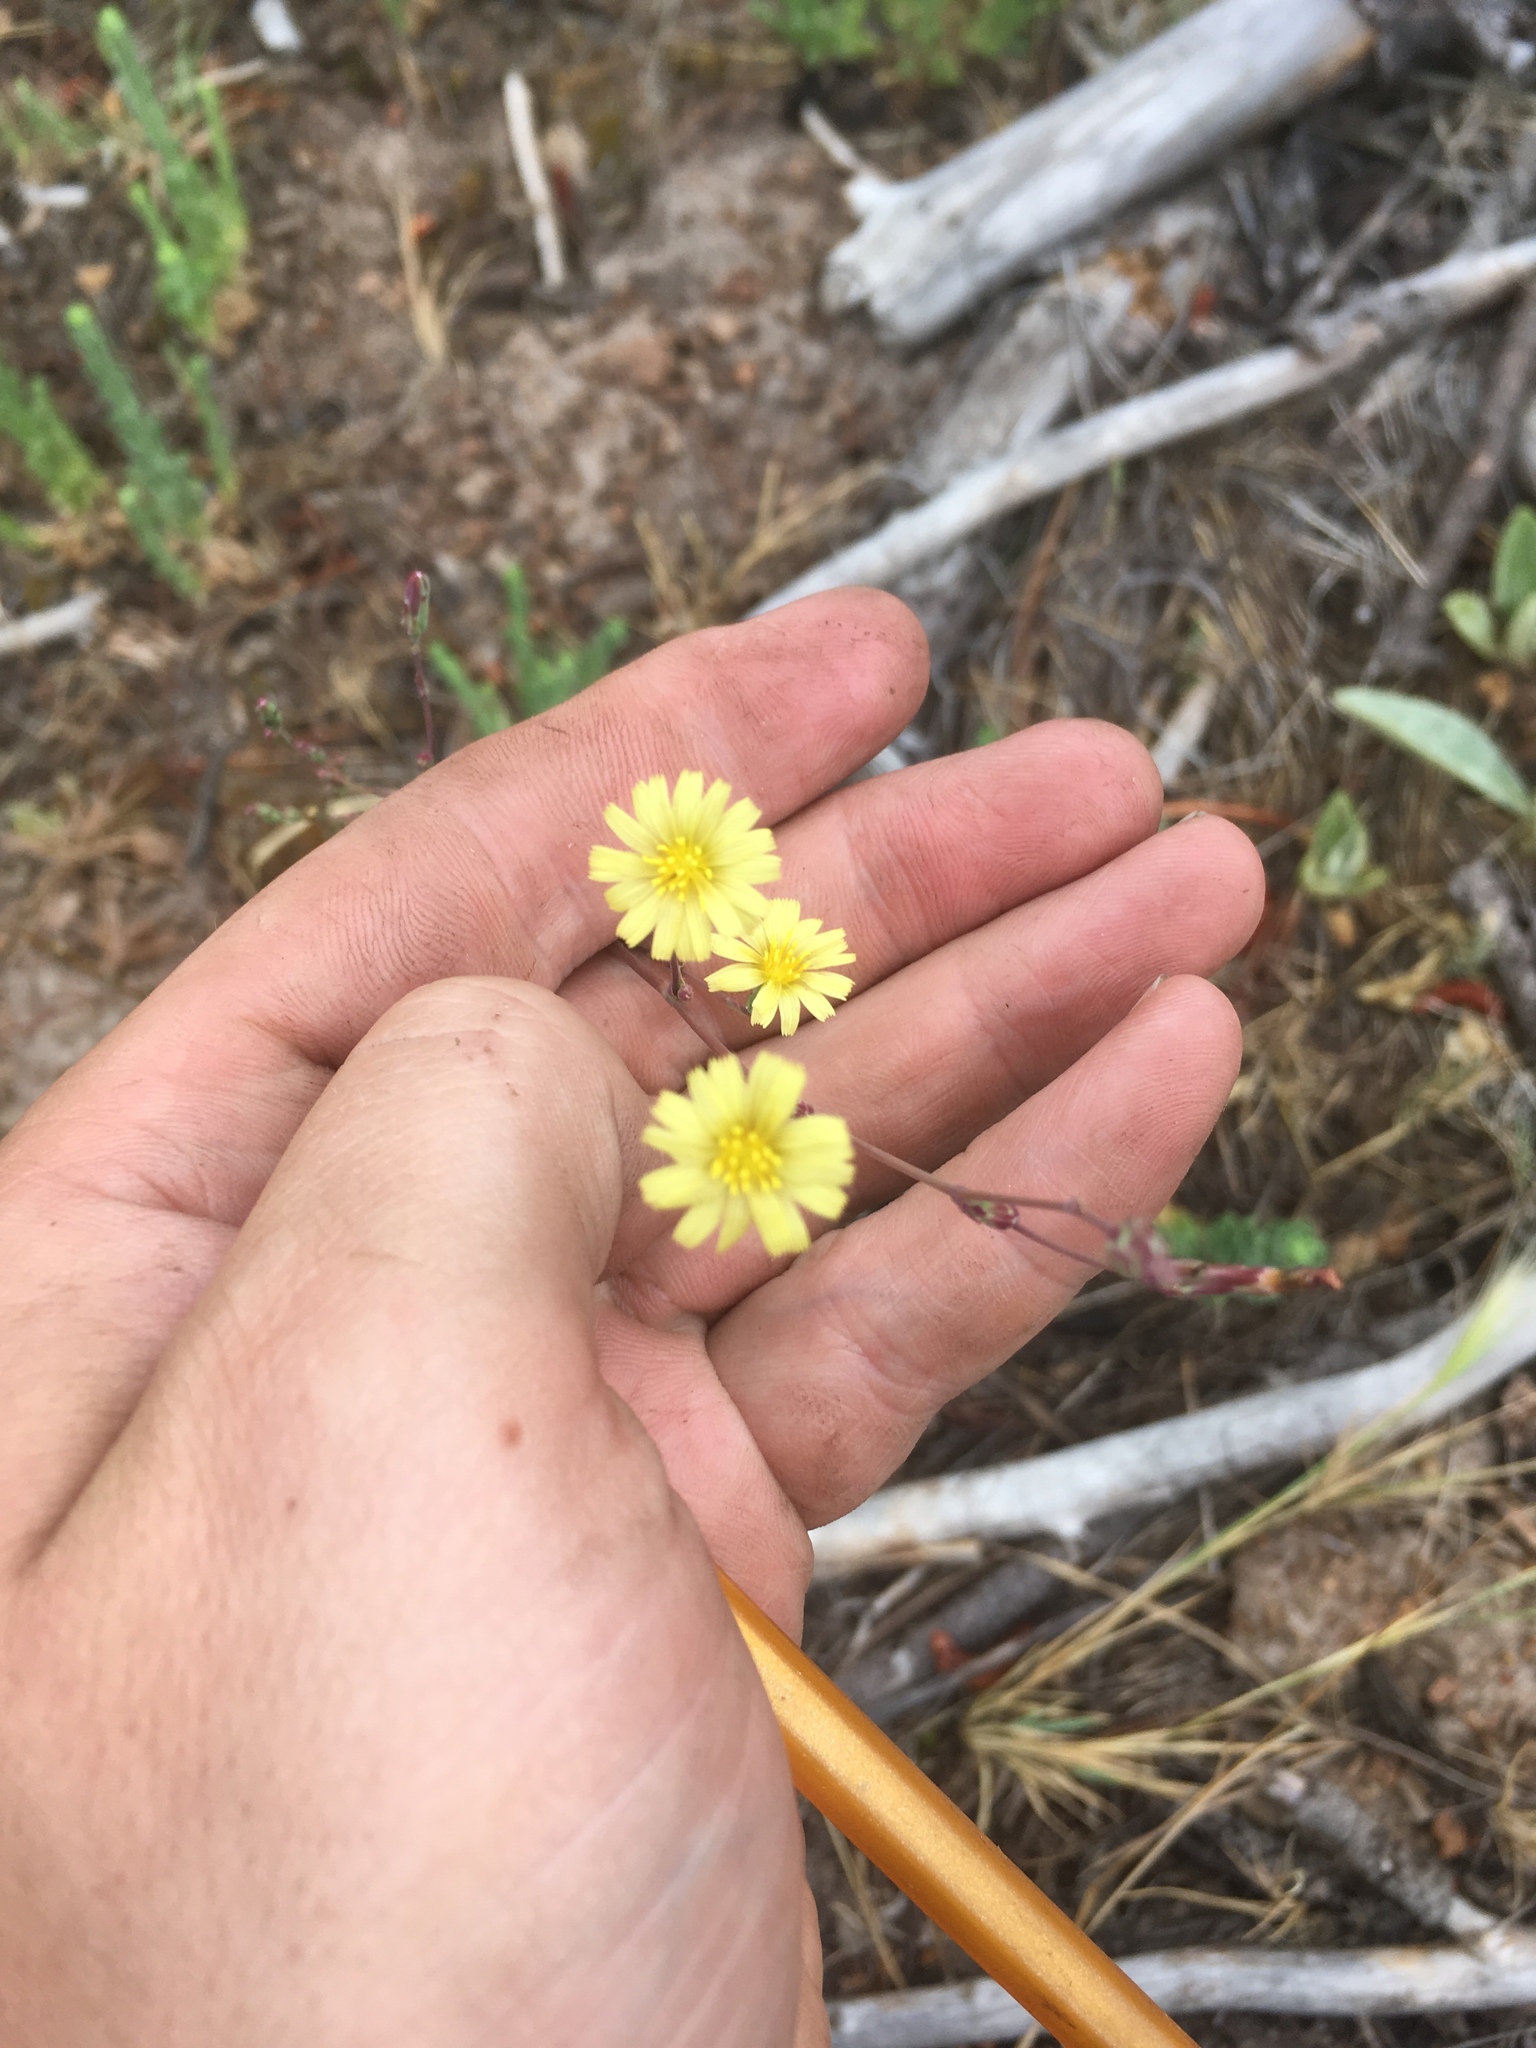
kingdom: Plantae
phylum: Tracheophyta
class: Magnoliopsida
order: Asterales
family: Asteraceae
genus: Lactuca
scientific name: Lactuca serriola
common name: Prickly lettuce
